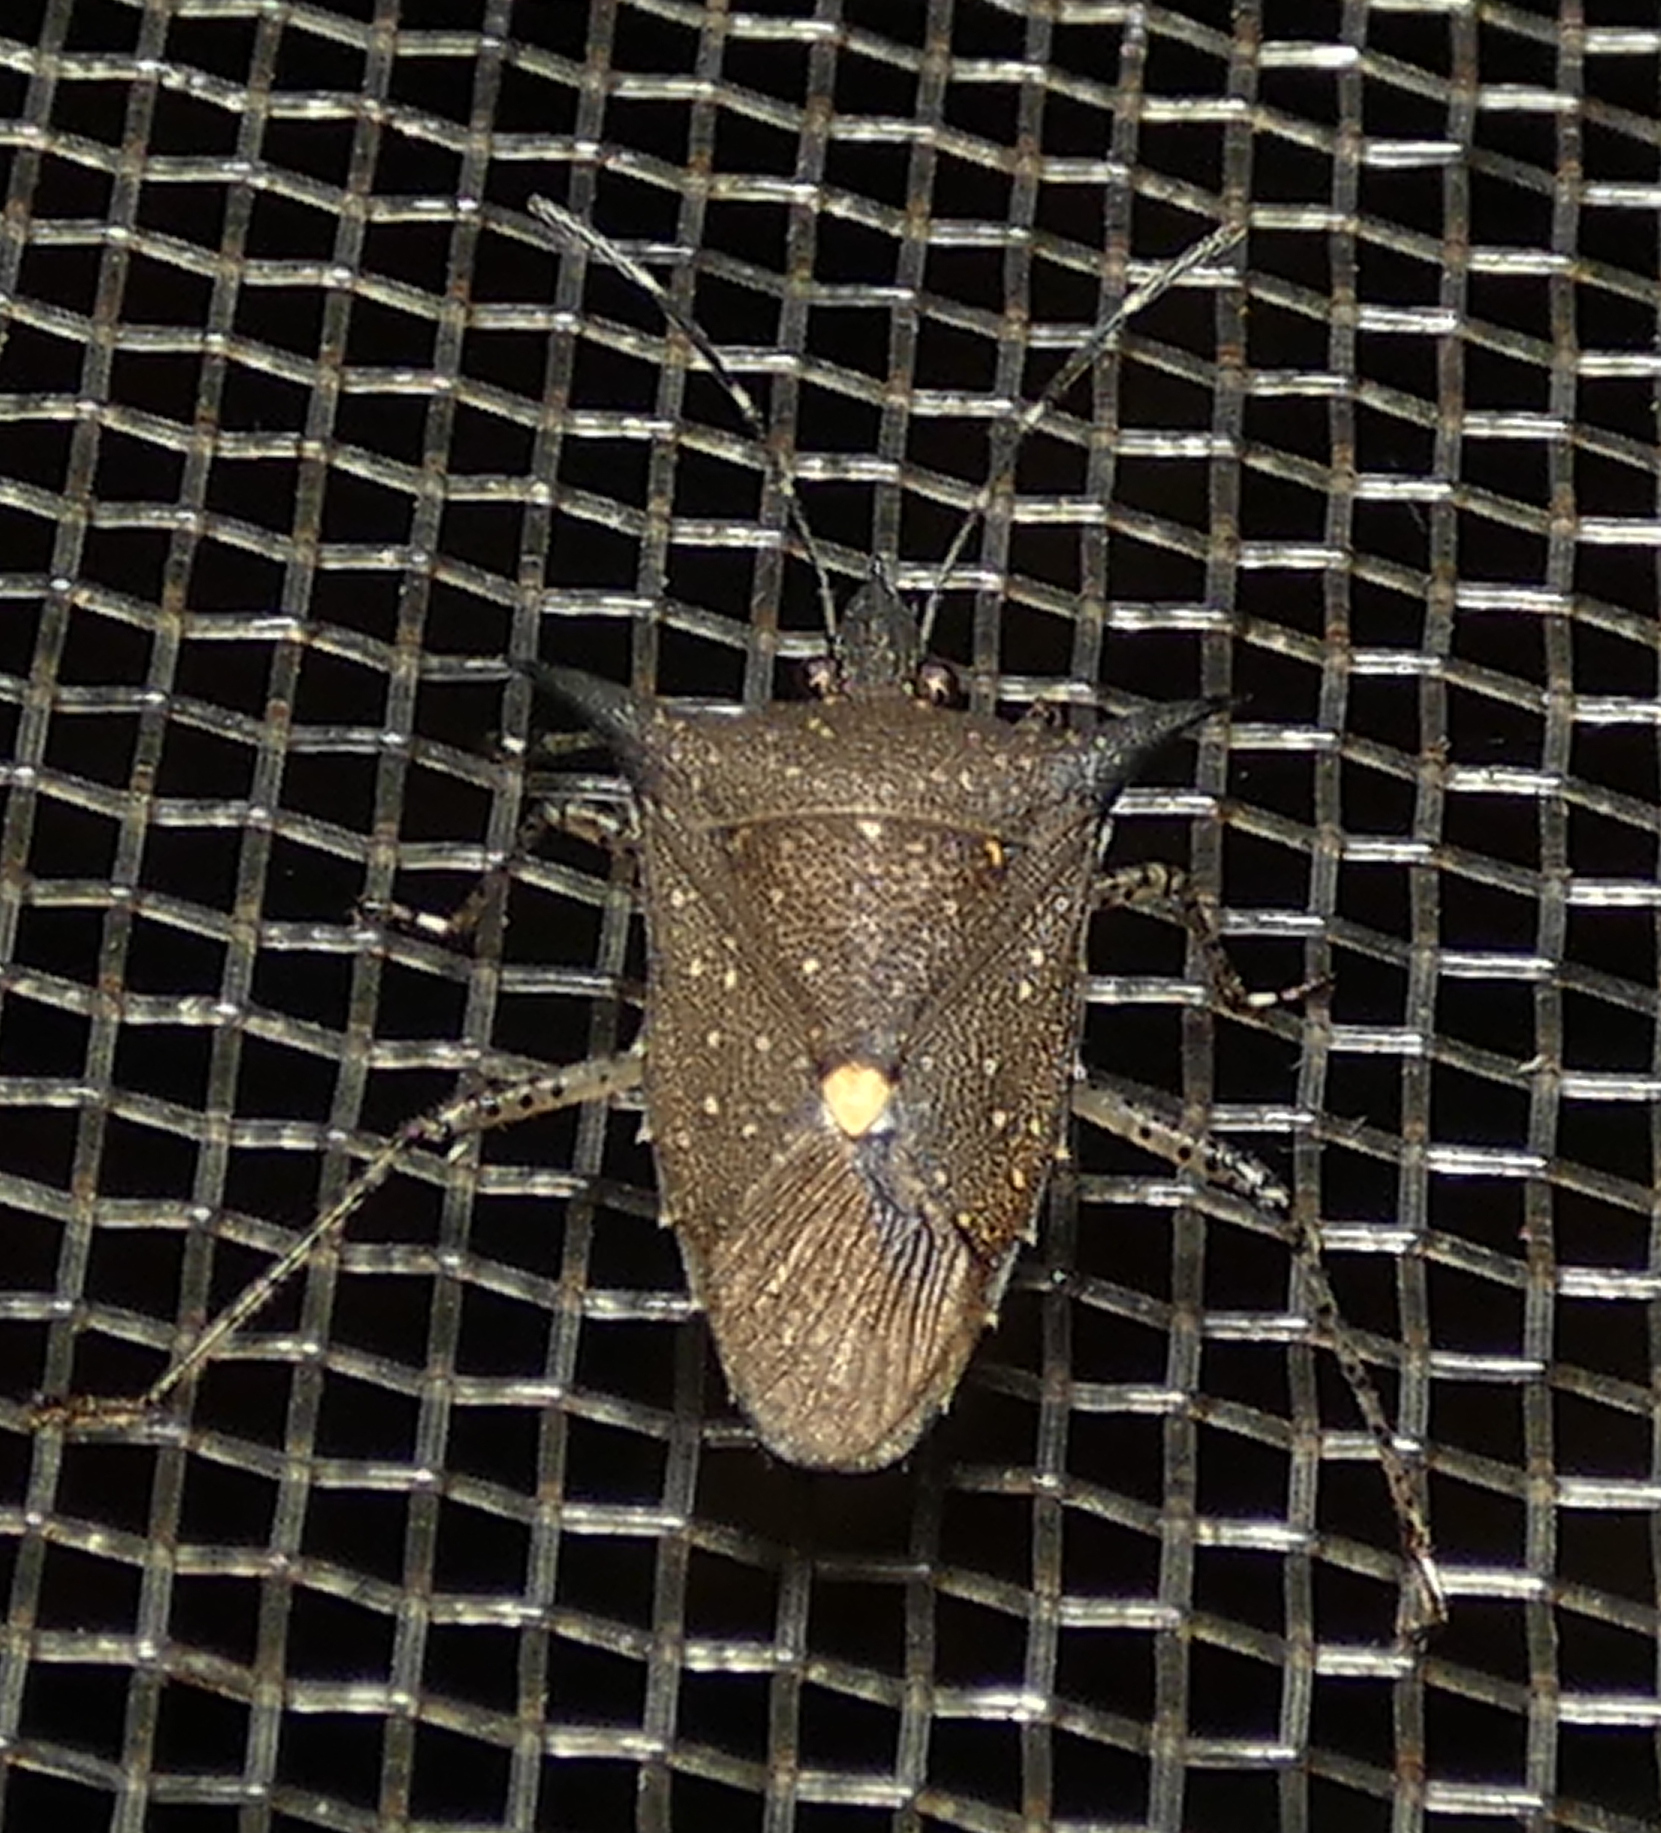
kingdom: Animalia
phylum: Arthropoda
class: Insecta
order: Hemiptera
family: Pentatomidae
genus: Proxys
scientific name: Proxys albopunctulatus
